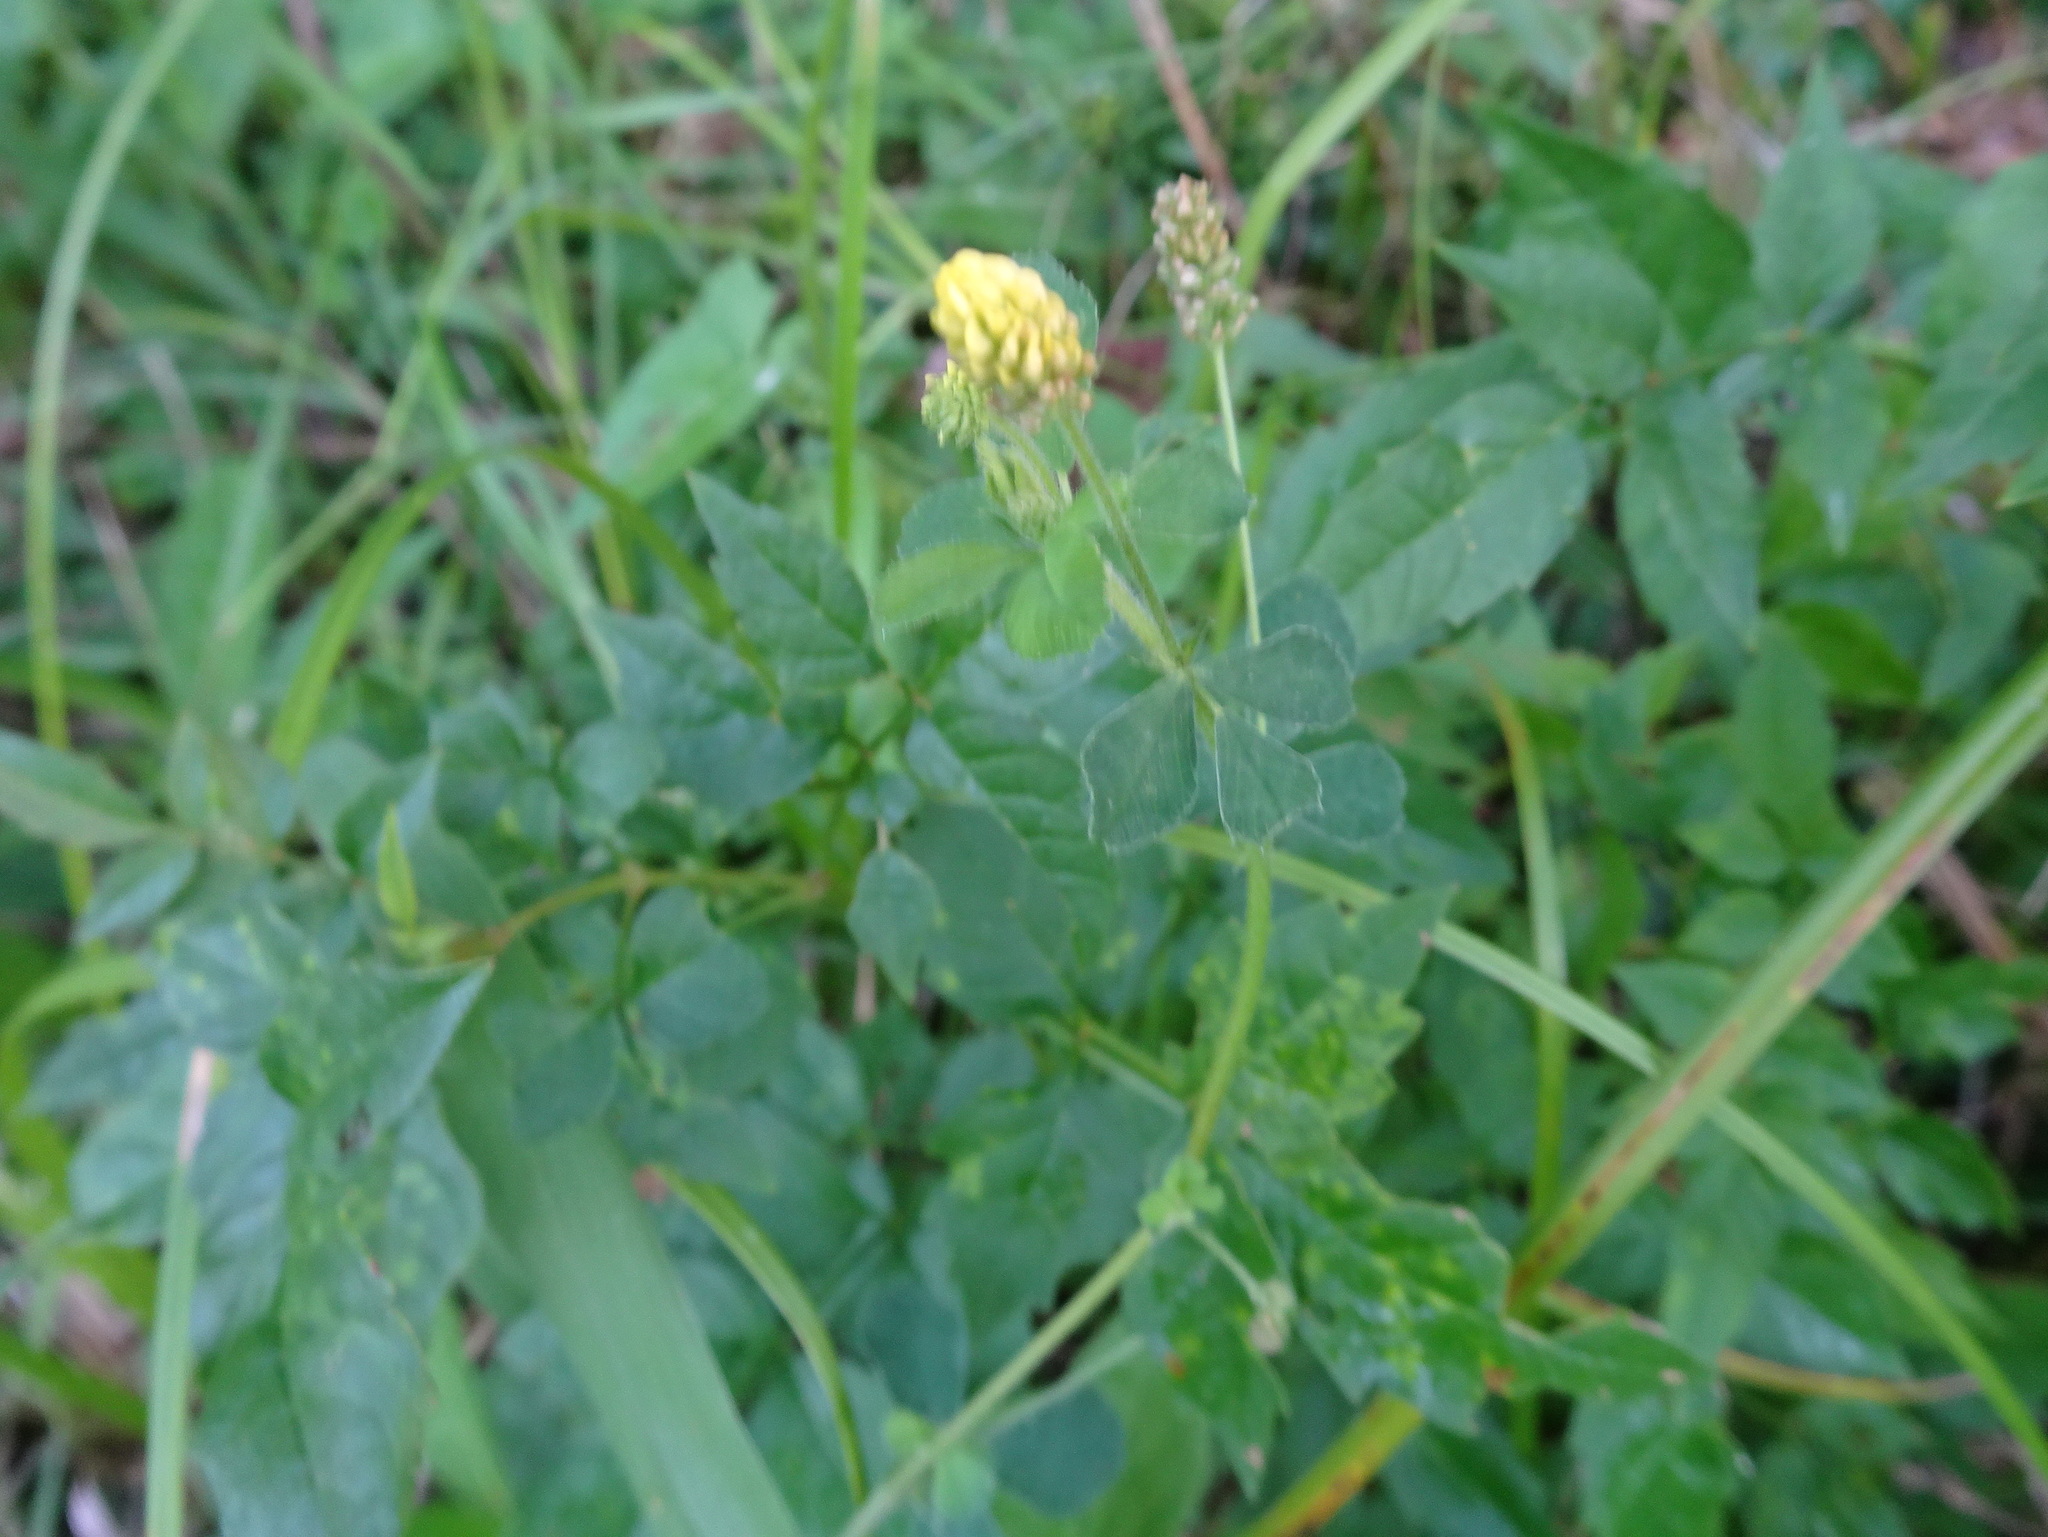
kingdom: Plantae
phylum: Tracheophyta
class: Magnoliopsida
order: Fabales
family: Fabaceae
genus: Medicago
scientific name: Medicago lupulina
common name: Black medick
